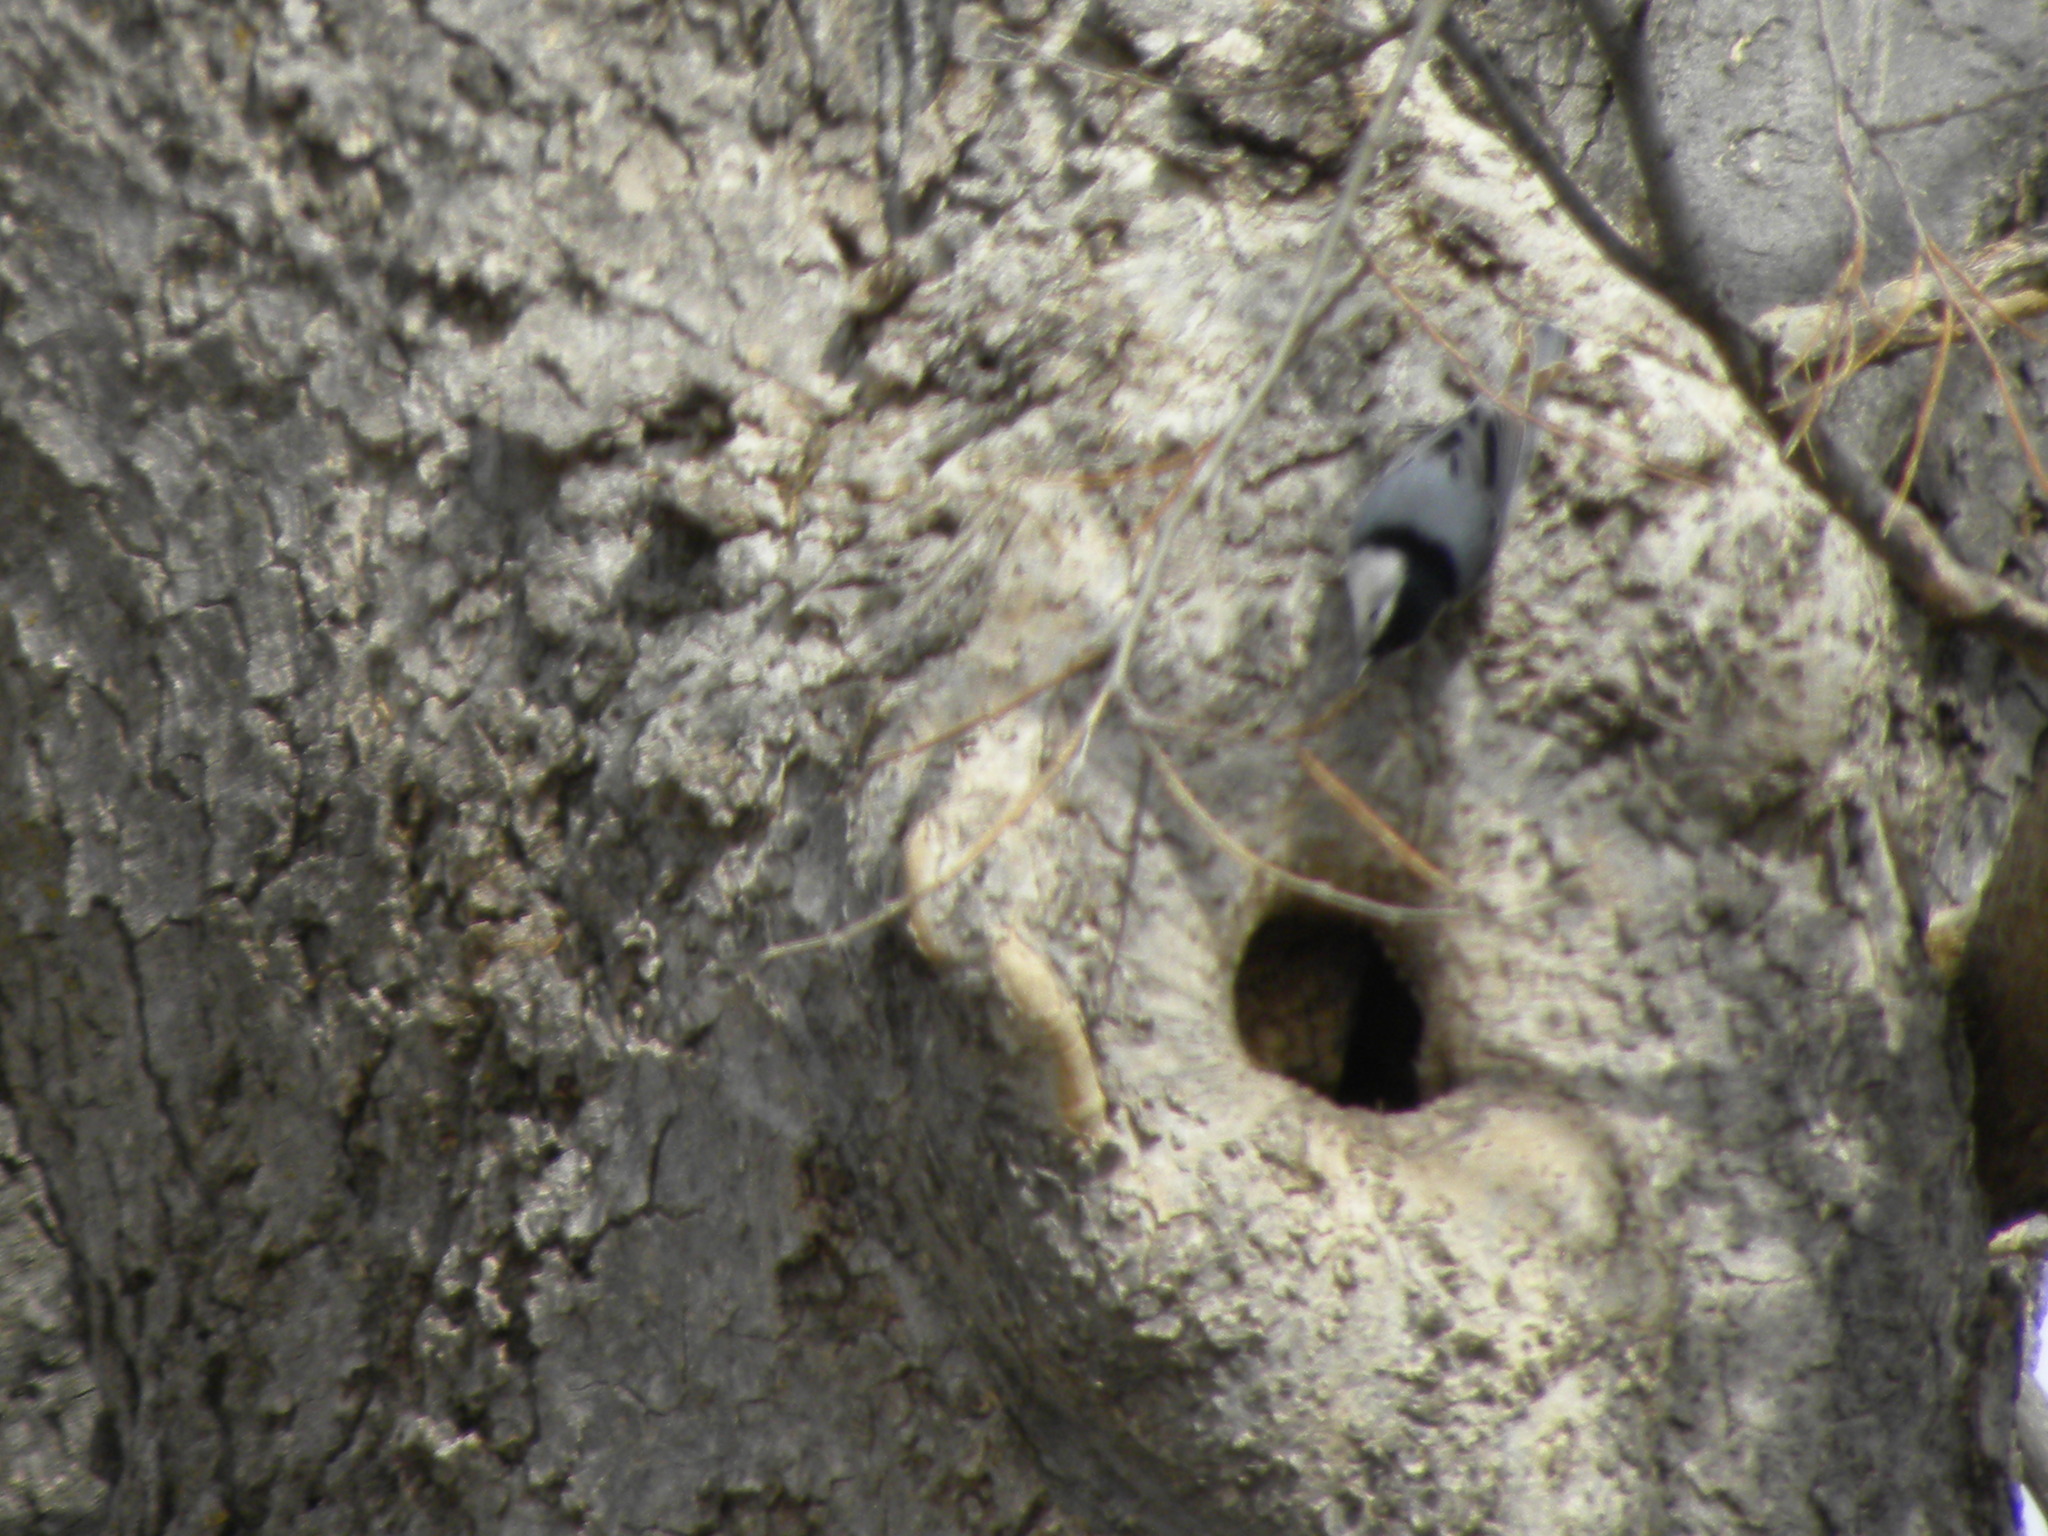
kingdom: Animalia
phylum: Chordata
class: Aves
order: Passeriformes
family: Sittidae
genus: Sitta
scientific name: Sitta carolinensis
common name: White-breasted nuthatch
